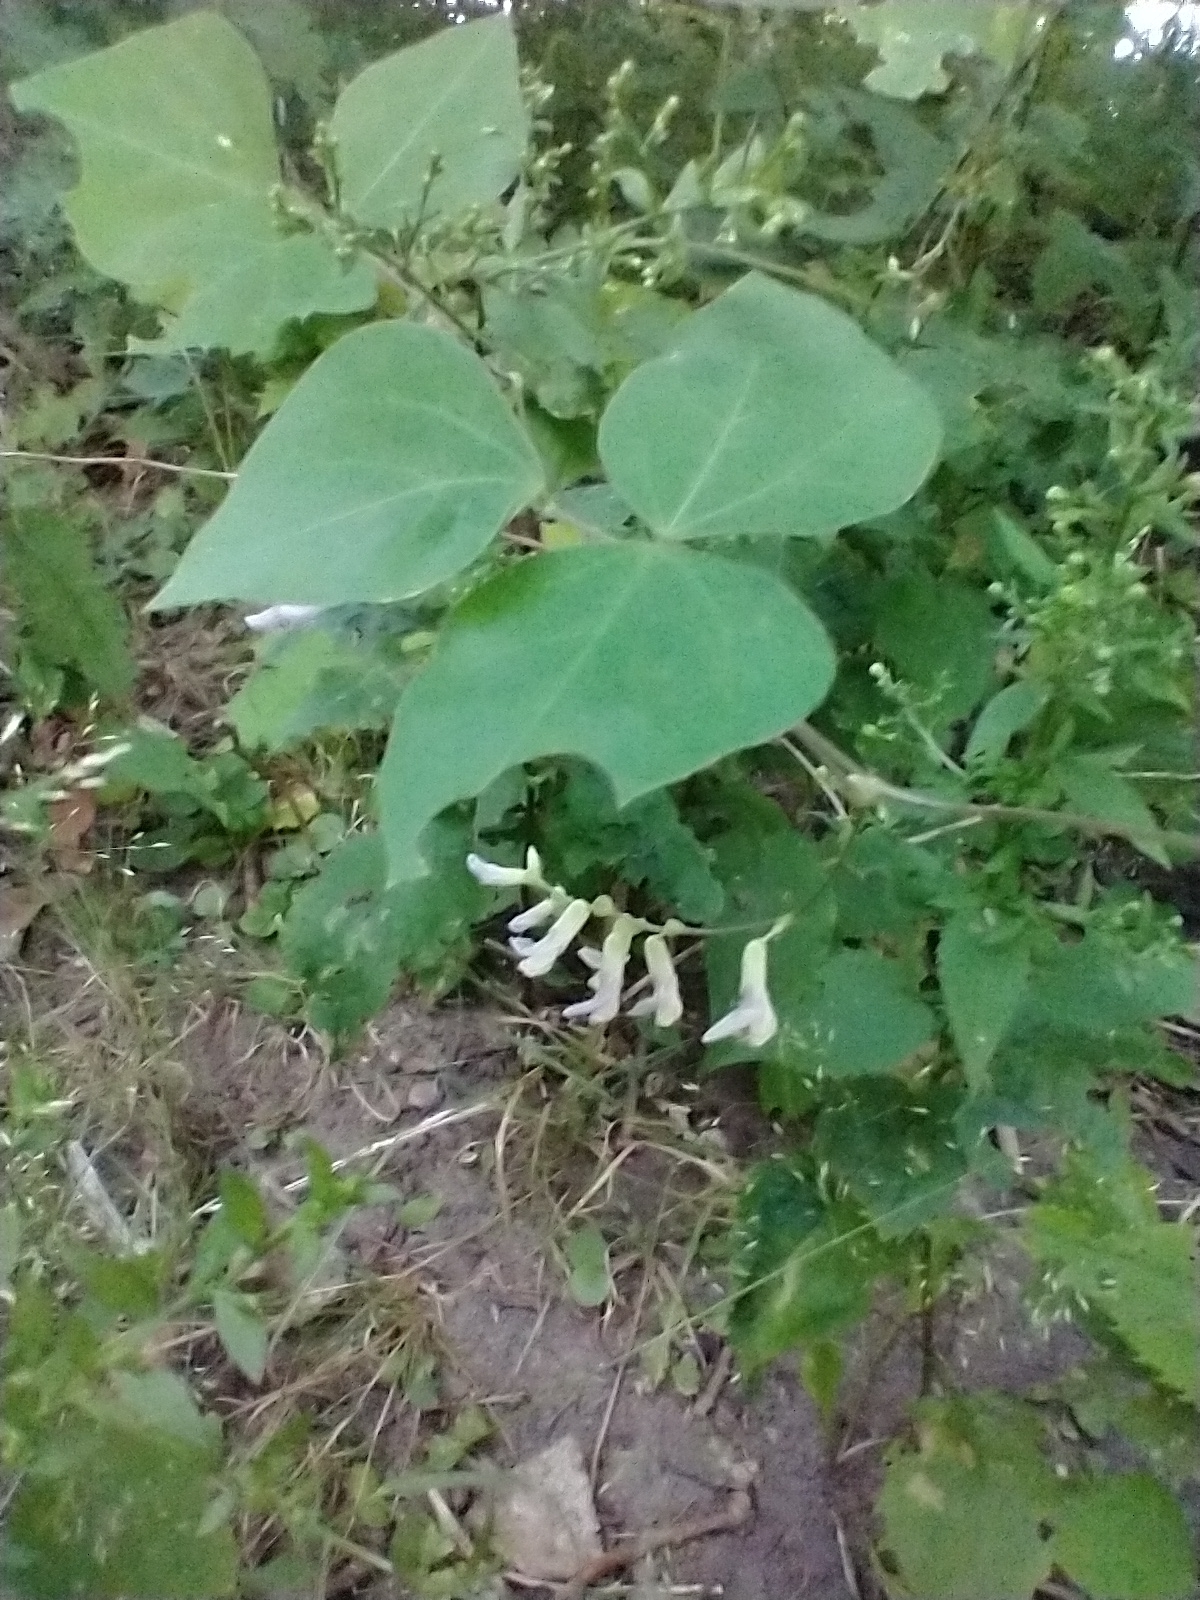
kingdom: Plantae
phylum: Tracheophyta
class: Magnoliopsida
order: Fabales
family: Fabaceae
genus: Amphicarpaea
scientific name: Amphicarpaea bracteata
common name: American hog peanut
